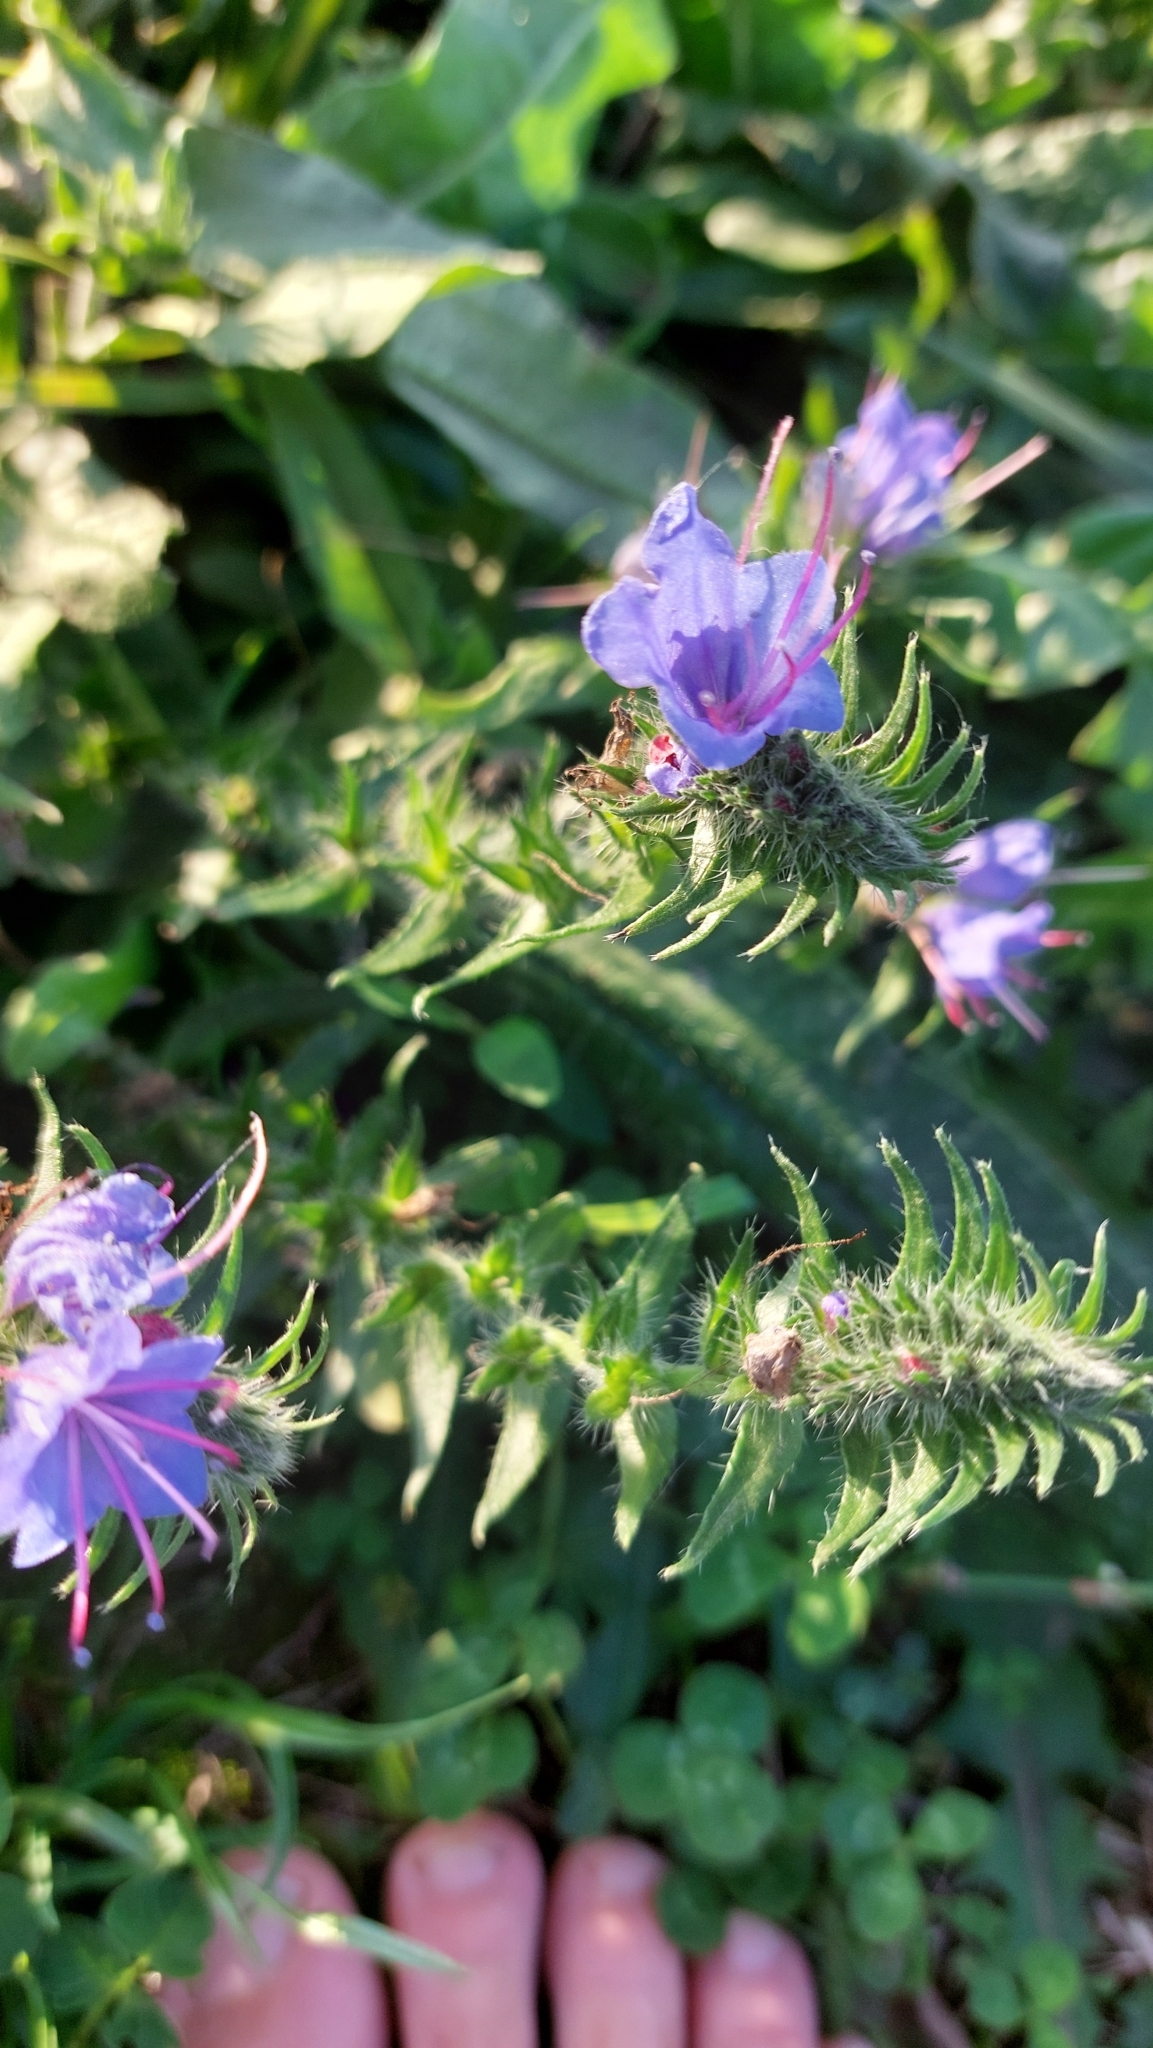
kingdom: Plantae
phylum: Tracheophyta
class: Magnoliopsida
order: Boraginales
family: Boraginaceae
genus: Echium
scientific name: Echium vulgare
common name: Common viper's bugloss
